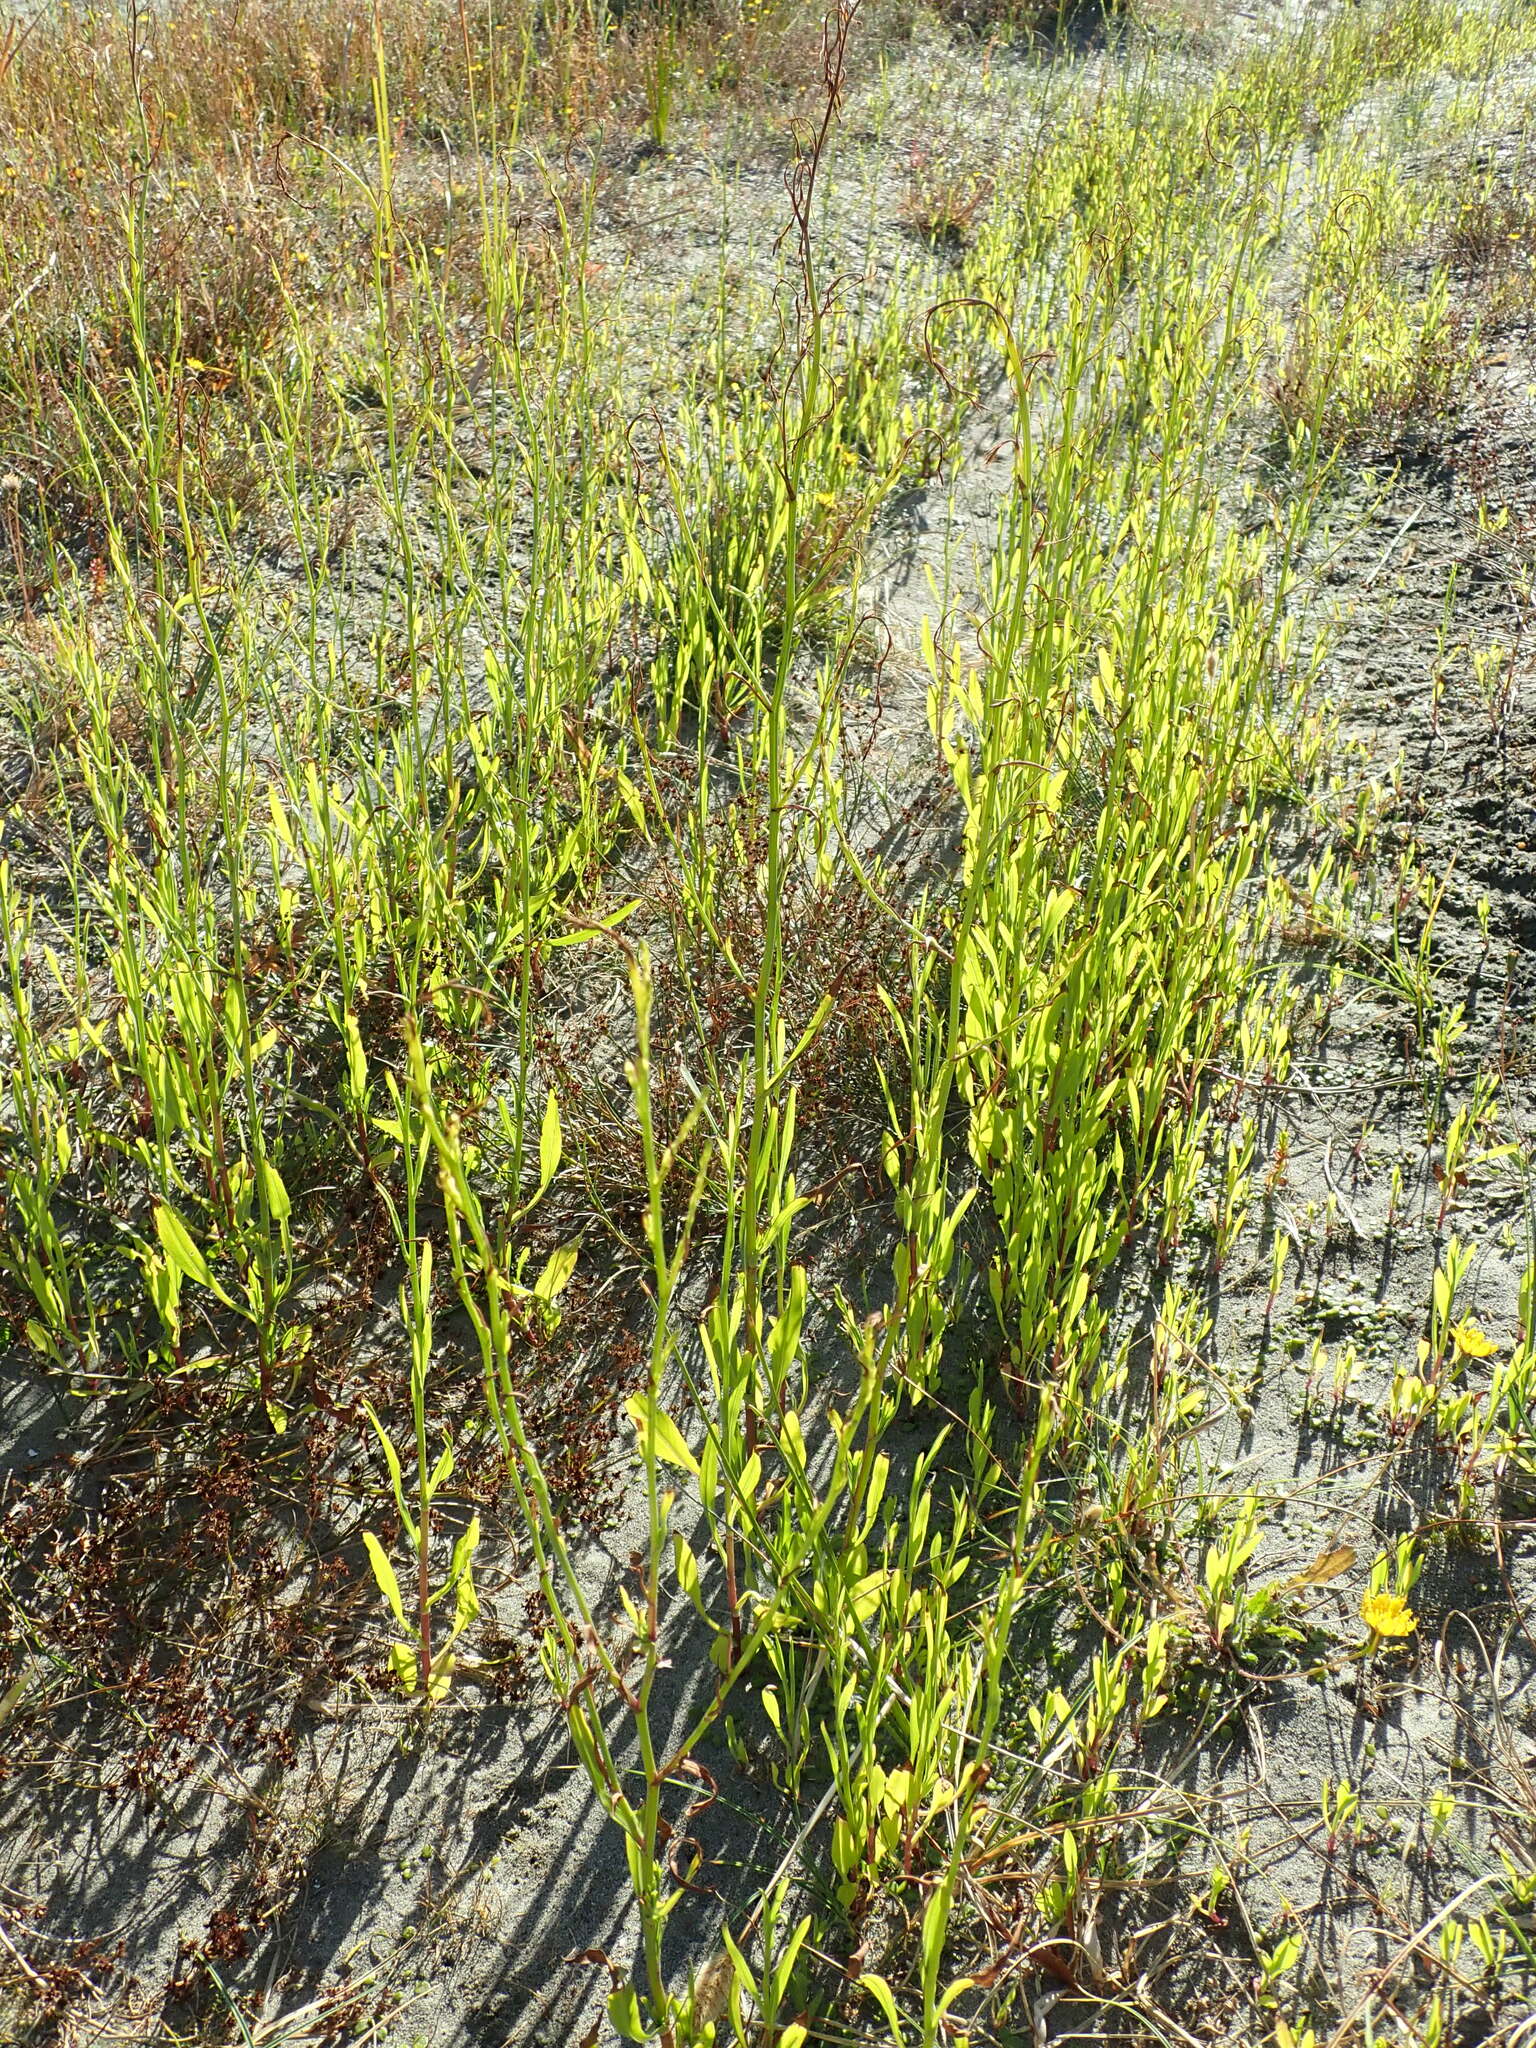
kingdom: Plantae
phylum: Tracheophyta
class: Magnoliopsida
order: Asterales
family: Asteraceae
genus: Symphyotrichum
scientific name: Symphyotrichum subulatum
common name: Annual saltmarsh aster
